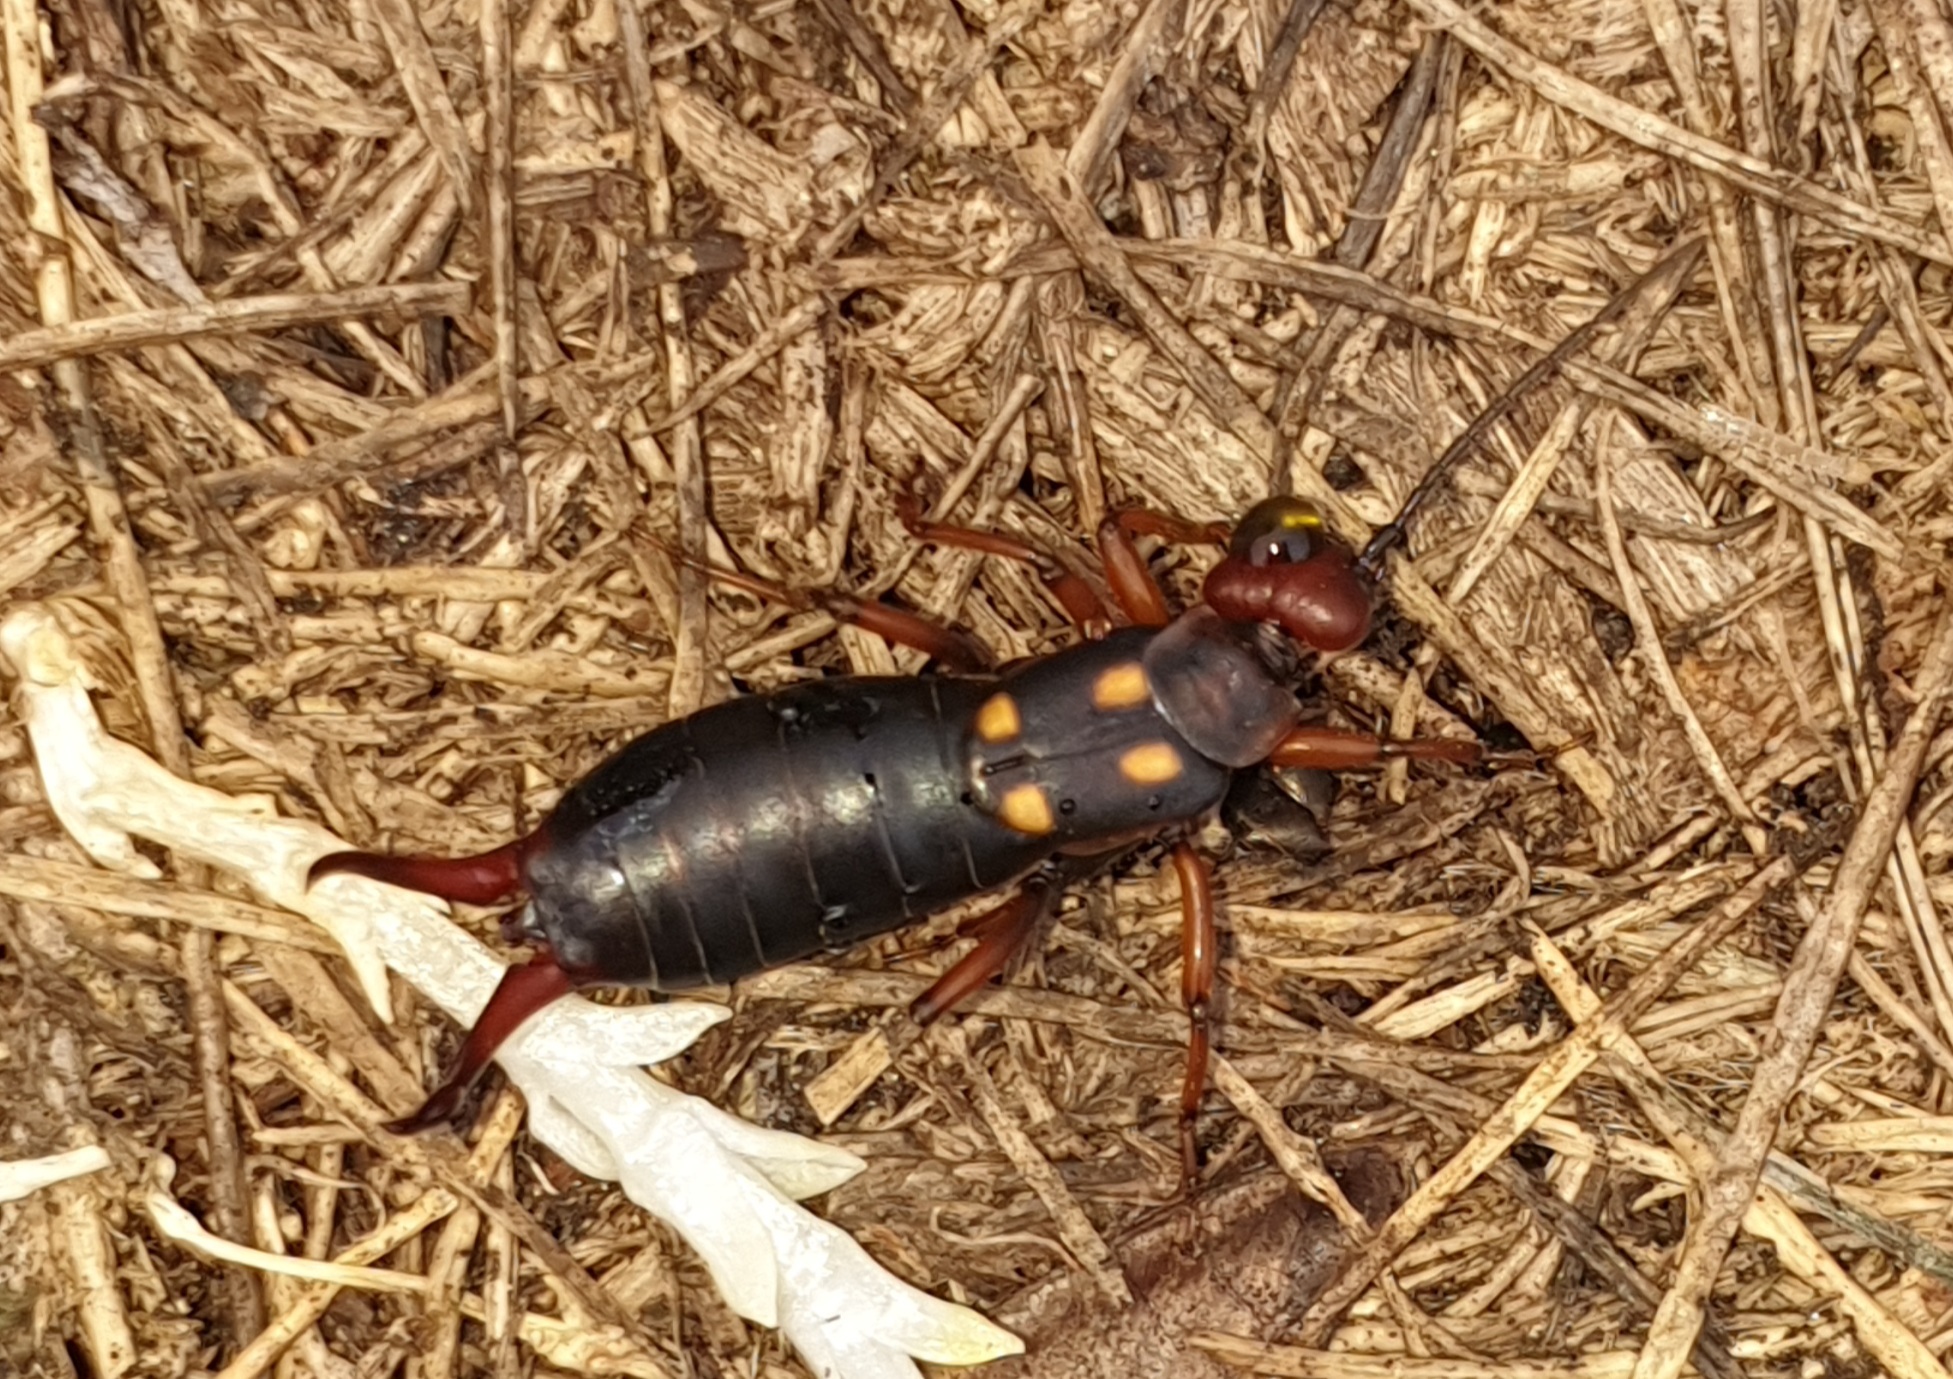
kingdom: Animalia
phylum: Arthropoda
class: Insecta
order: Dermaptera
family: Forficulidae
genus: Anechura
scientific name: Anechura bipunctata
